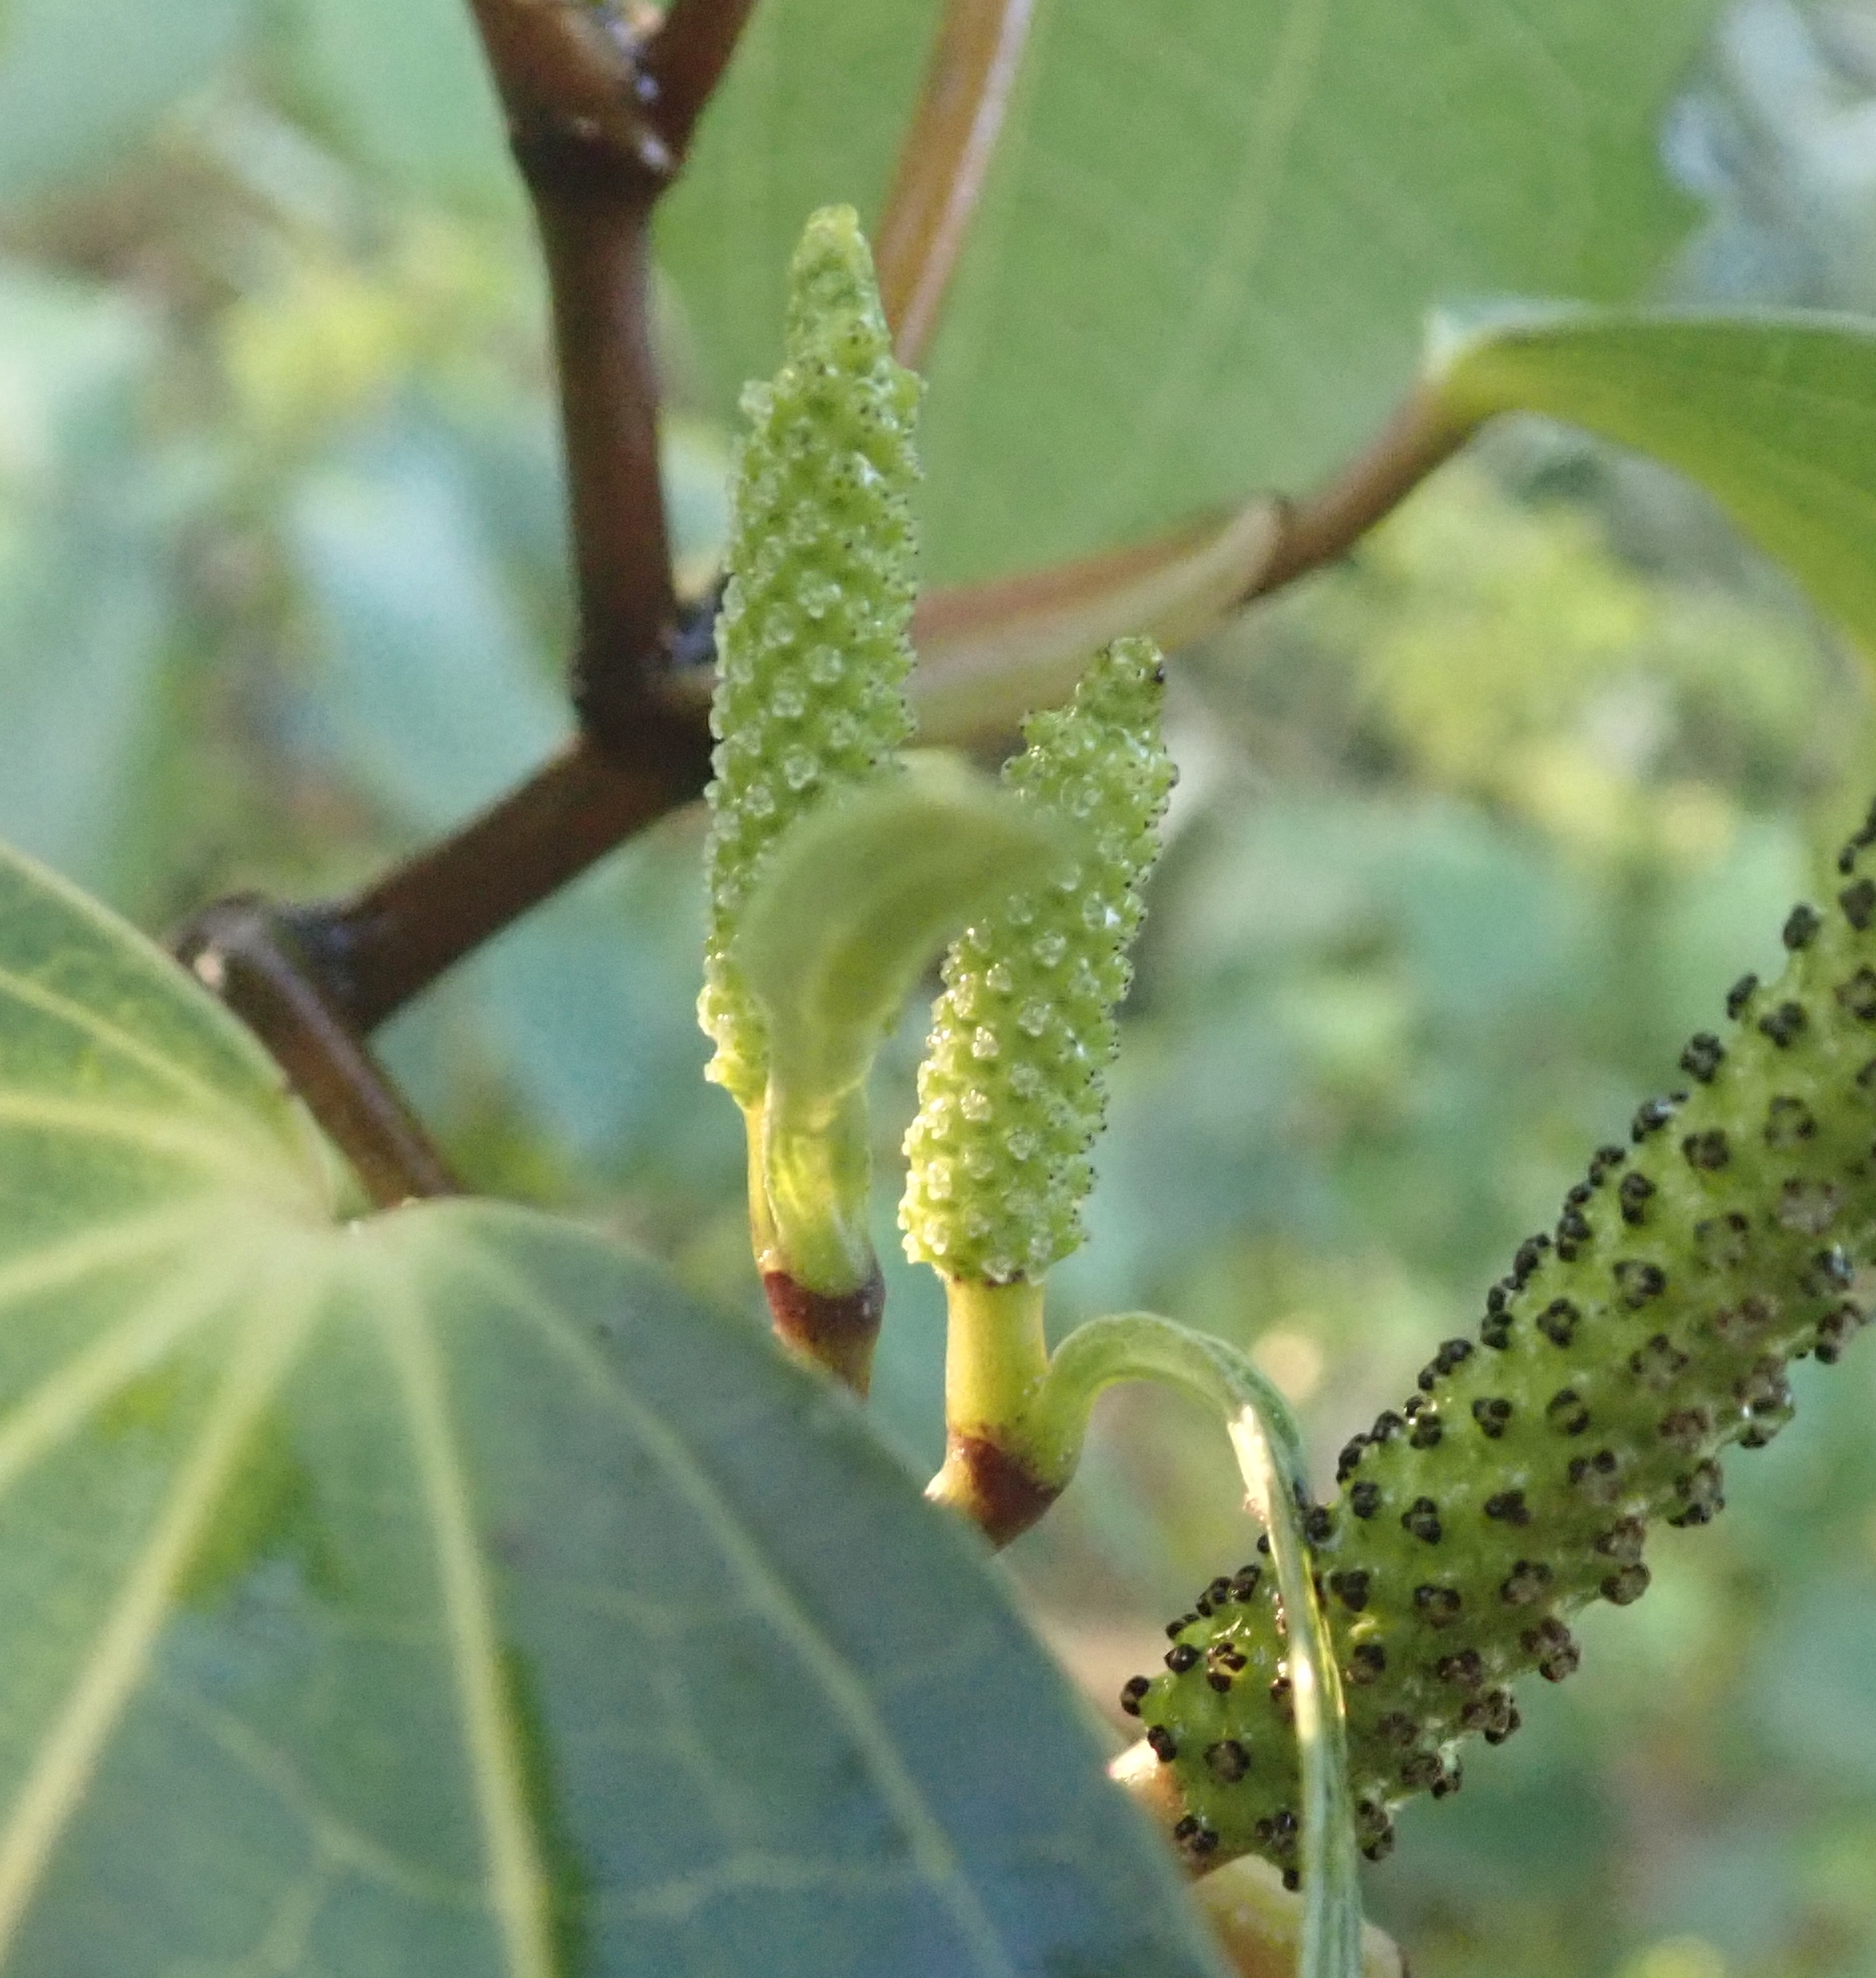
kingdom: Plantae
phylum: Tracheophyta
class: Magnoliopsida
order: Piperales
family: Piperaceae
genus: Macropiper
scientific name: Macropiper excelsum
